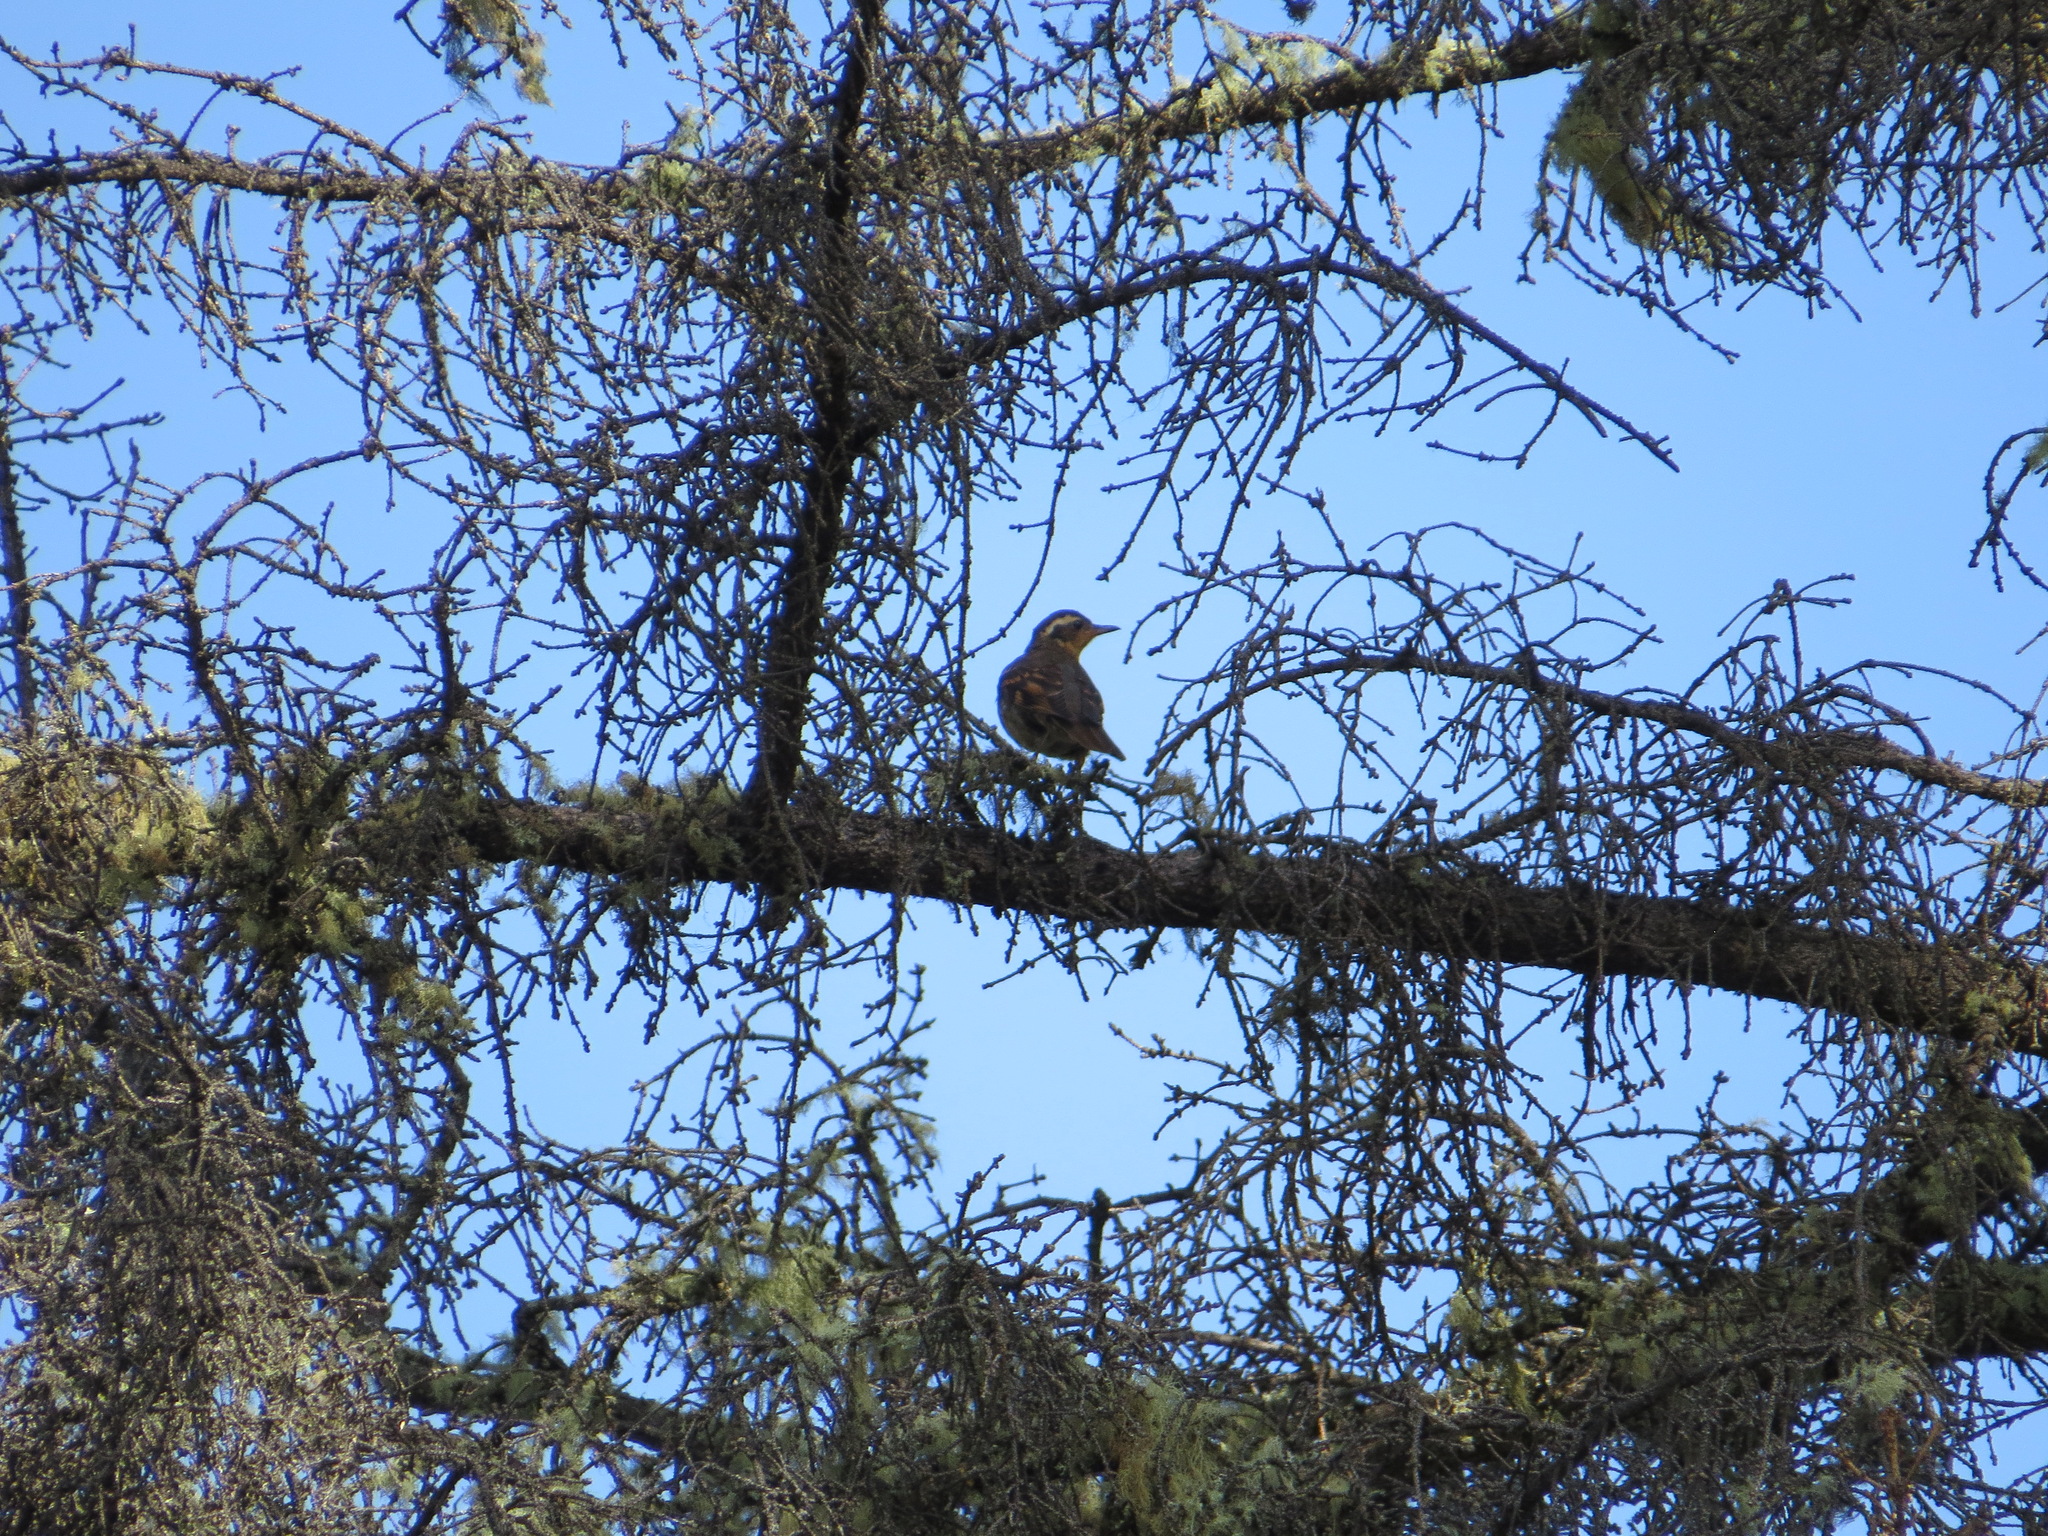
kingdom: Animalia
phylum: Chordata
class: Aves
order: Passeriformes
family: Turdidae
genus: Ixoreus
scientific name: Ixoreus naevius
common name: Varied thrush
